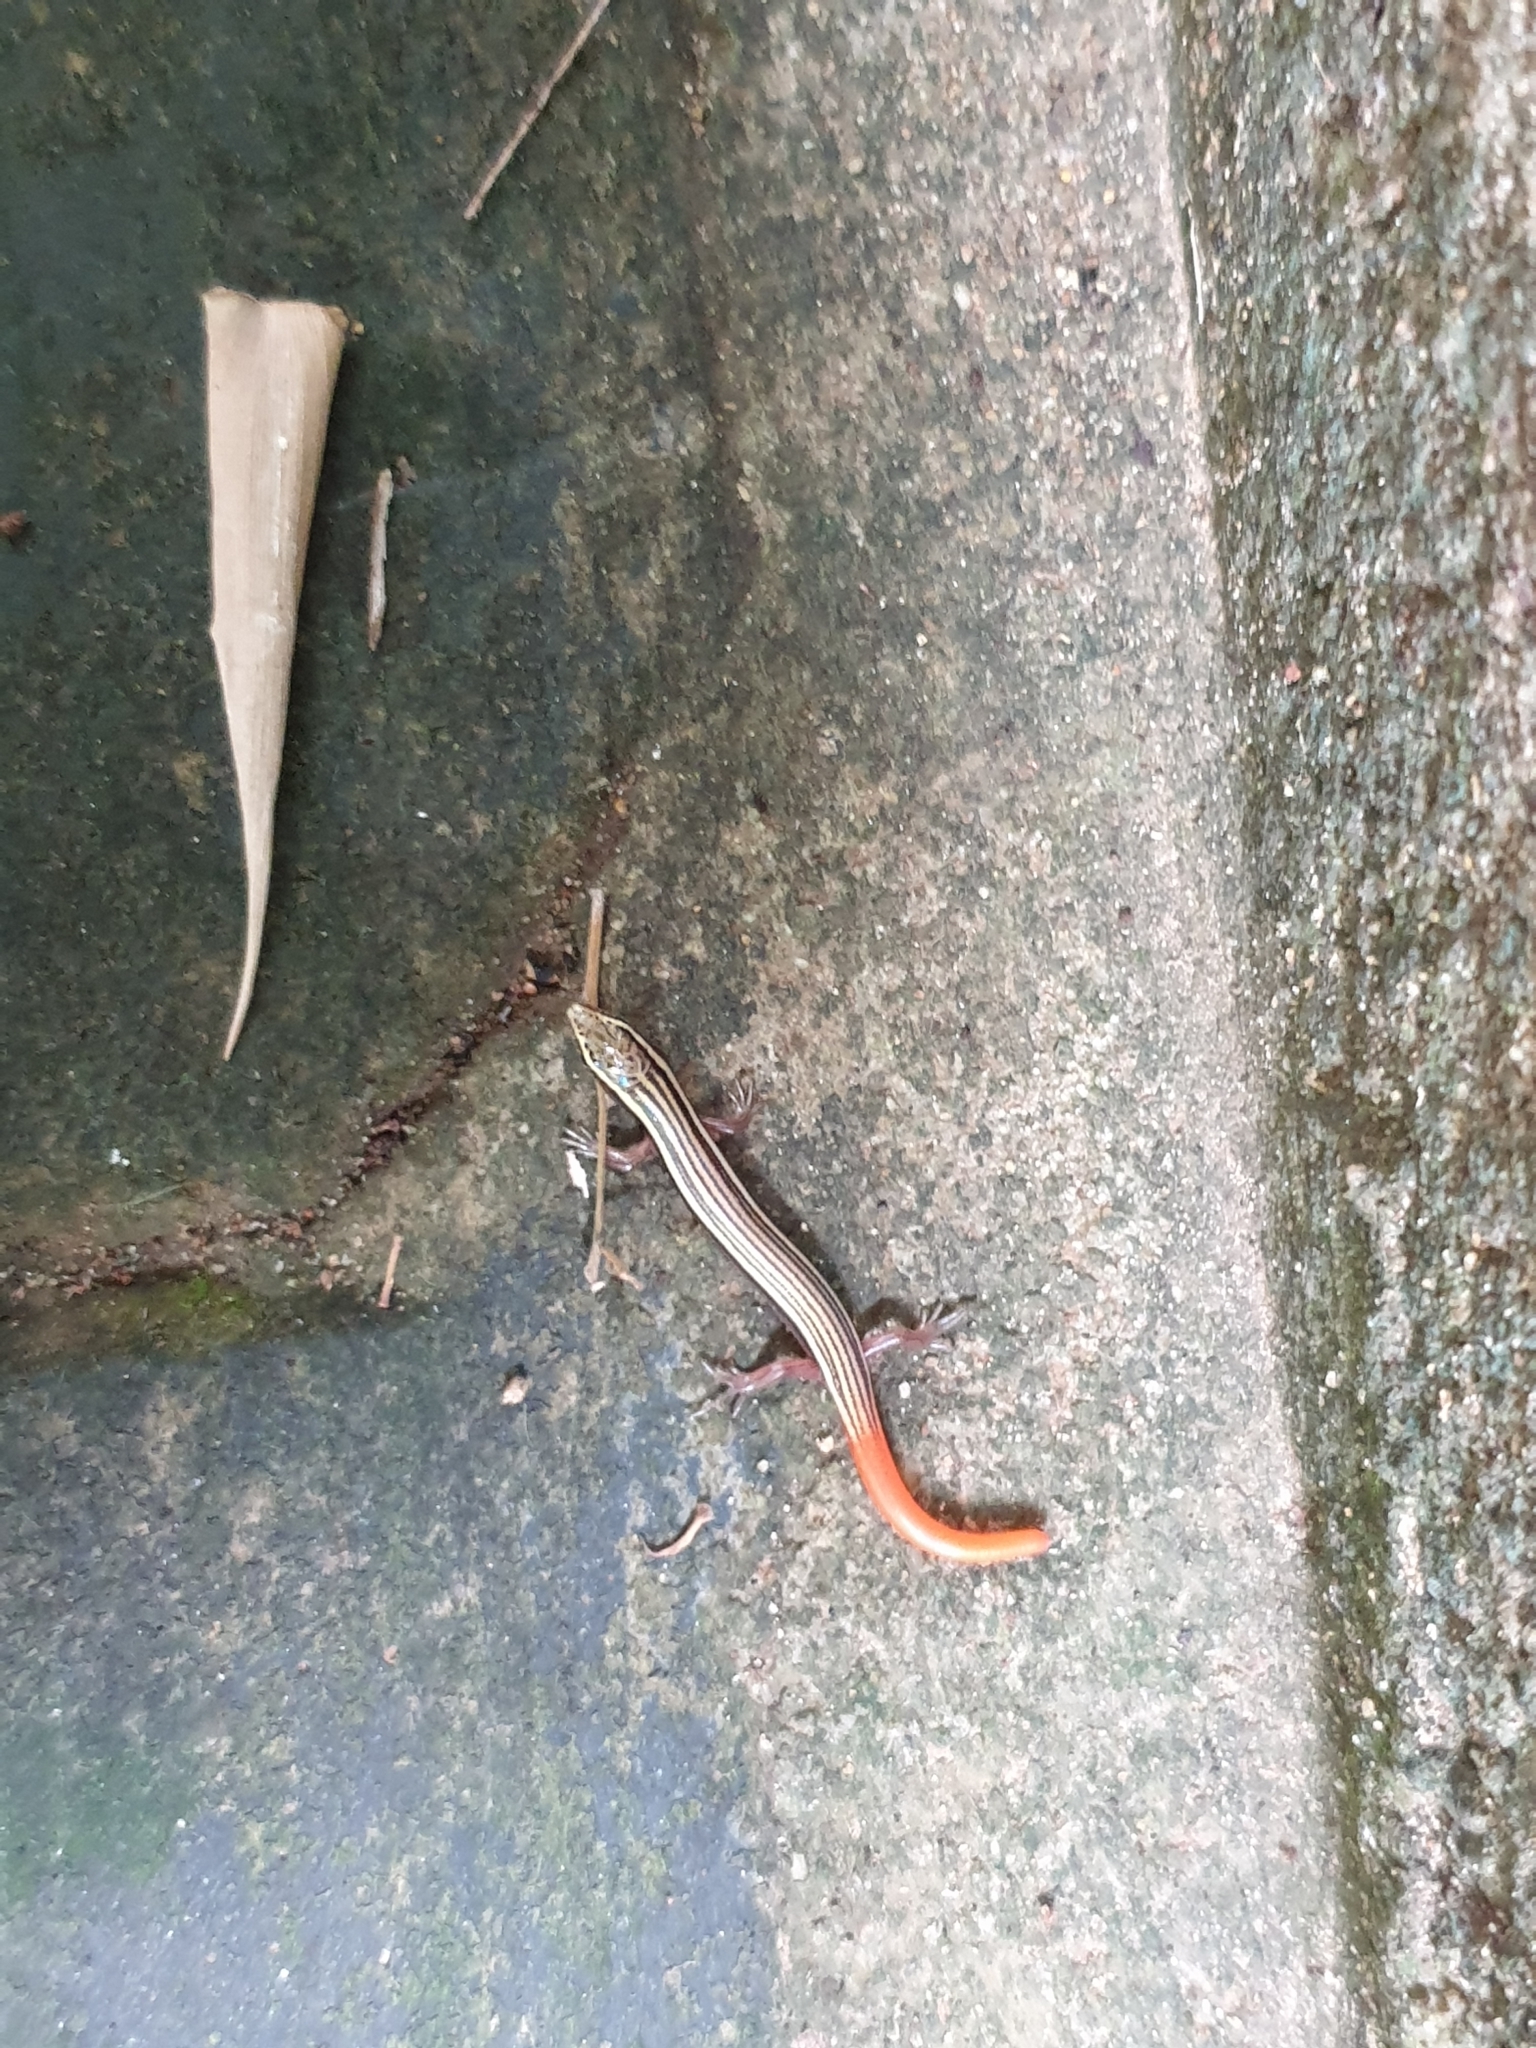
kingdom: Animalia
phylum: Chordata
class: Squamata
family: Scincidae
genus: Riopa
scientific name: Riopa punctata
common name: Common dotted garden skink
